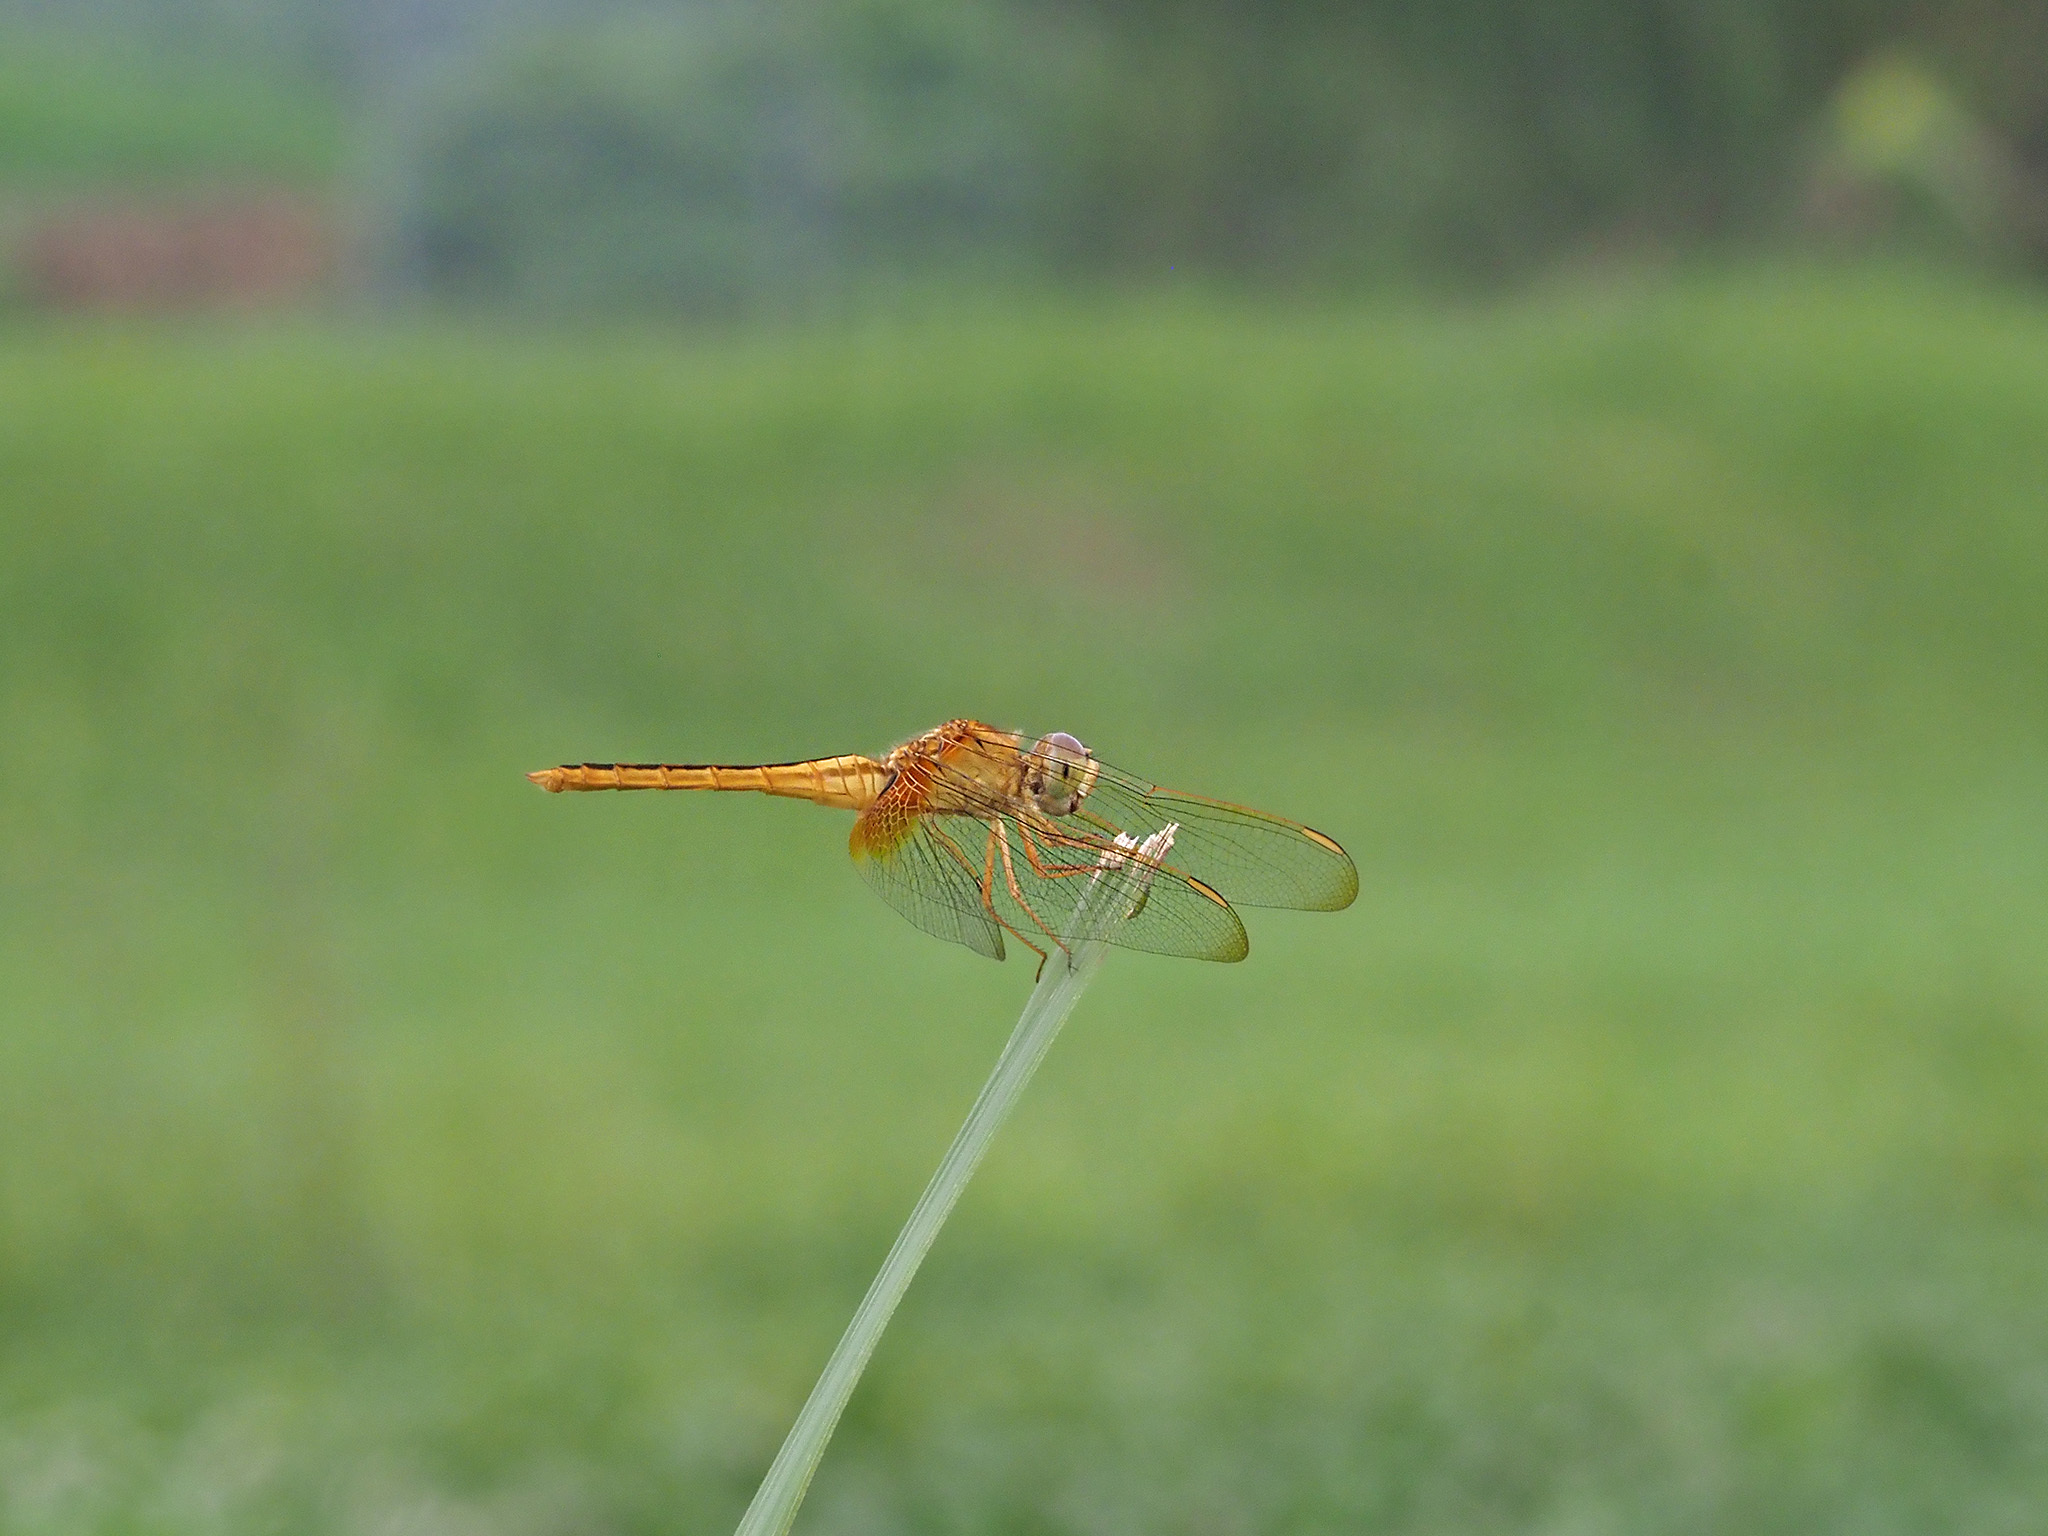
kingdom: Animalia
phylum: Arthropoda
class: Insecta
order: Odonata
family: Libellulidae
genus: Crocothemis
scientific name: Crocothemis servilia
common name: Scarlet skimmer
